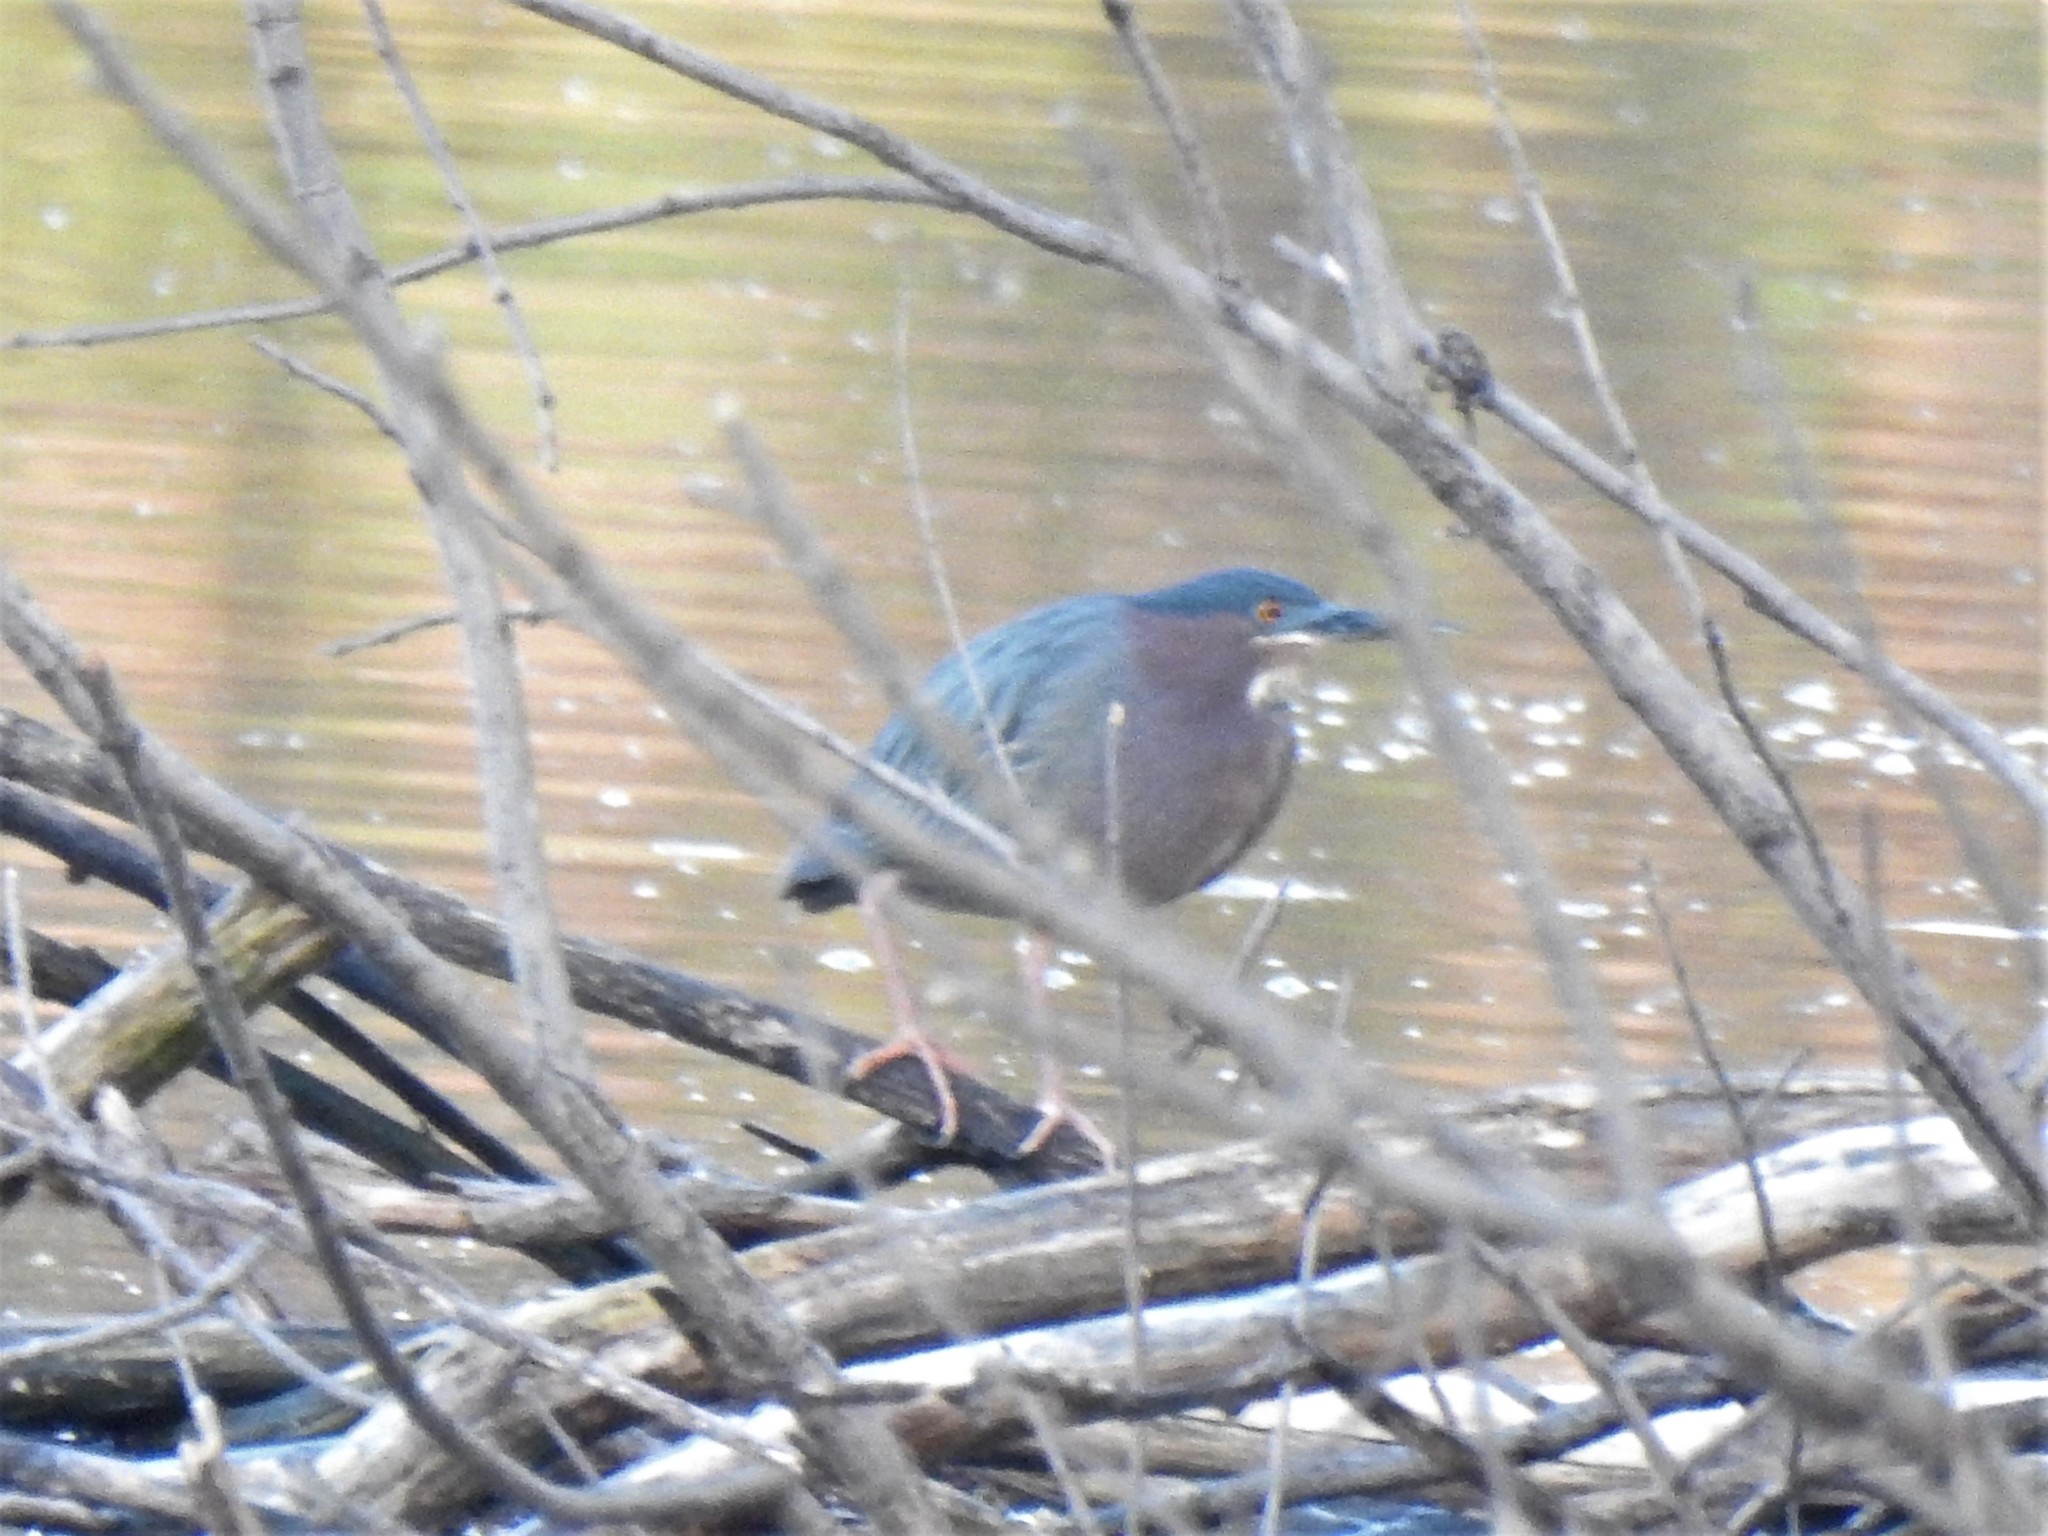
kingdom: Animalia
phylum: Chordata
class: Aves
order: Pelecaniformes
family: Ardeidae
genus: Butorides
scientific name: Butorides virescens
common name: Green heron
